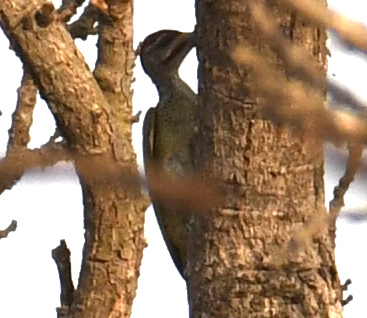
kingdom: Animalia
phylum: Chordata
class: Aves
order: Piciformes
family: Picidae
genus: Campethera
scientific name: Campethera punctuligera
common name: Fine-spotted woodpecker
